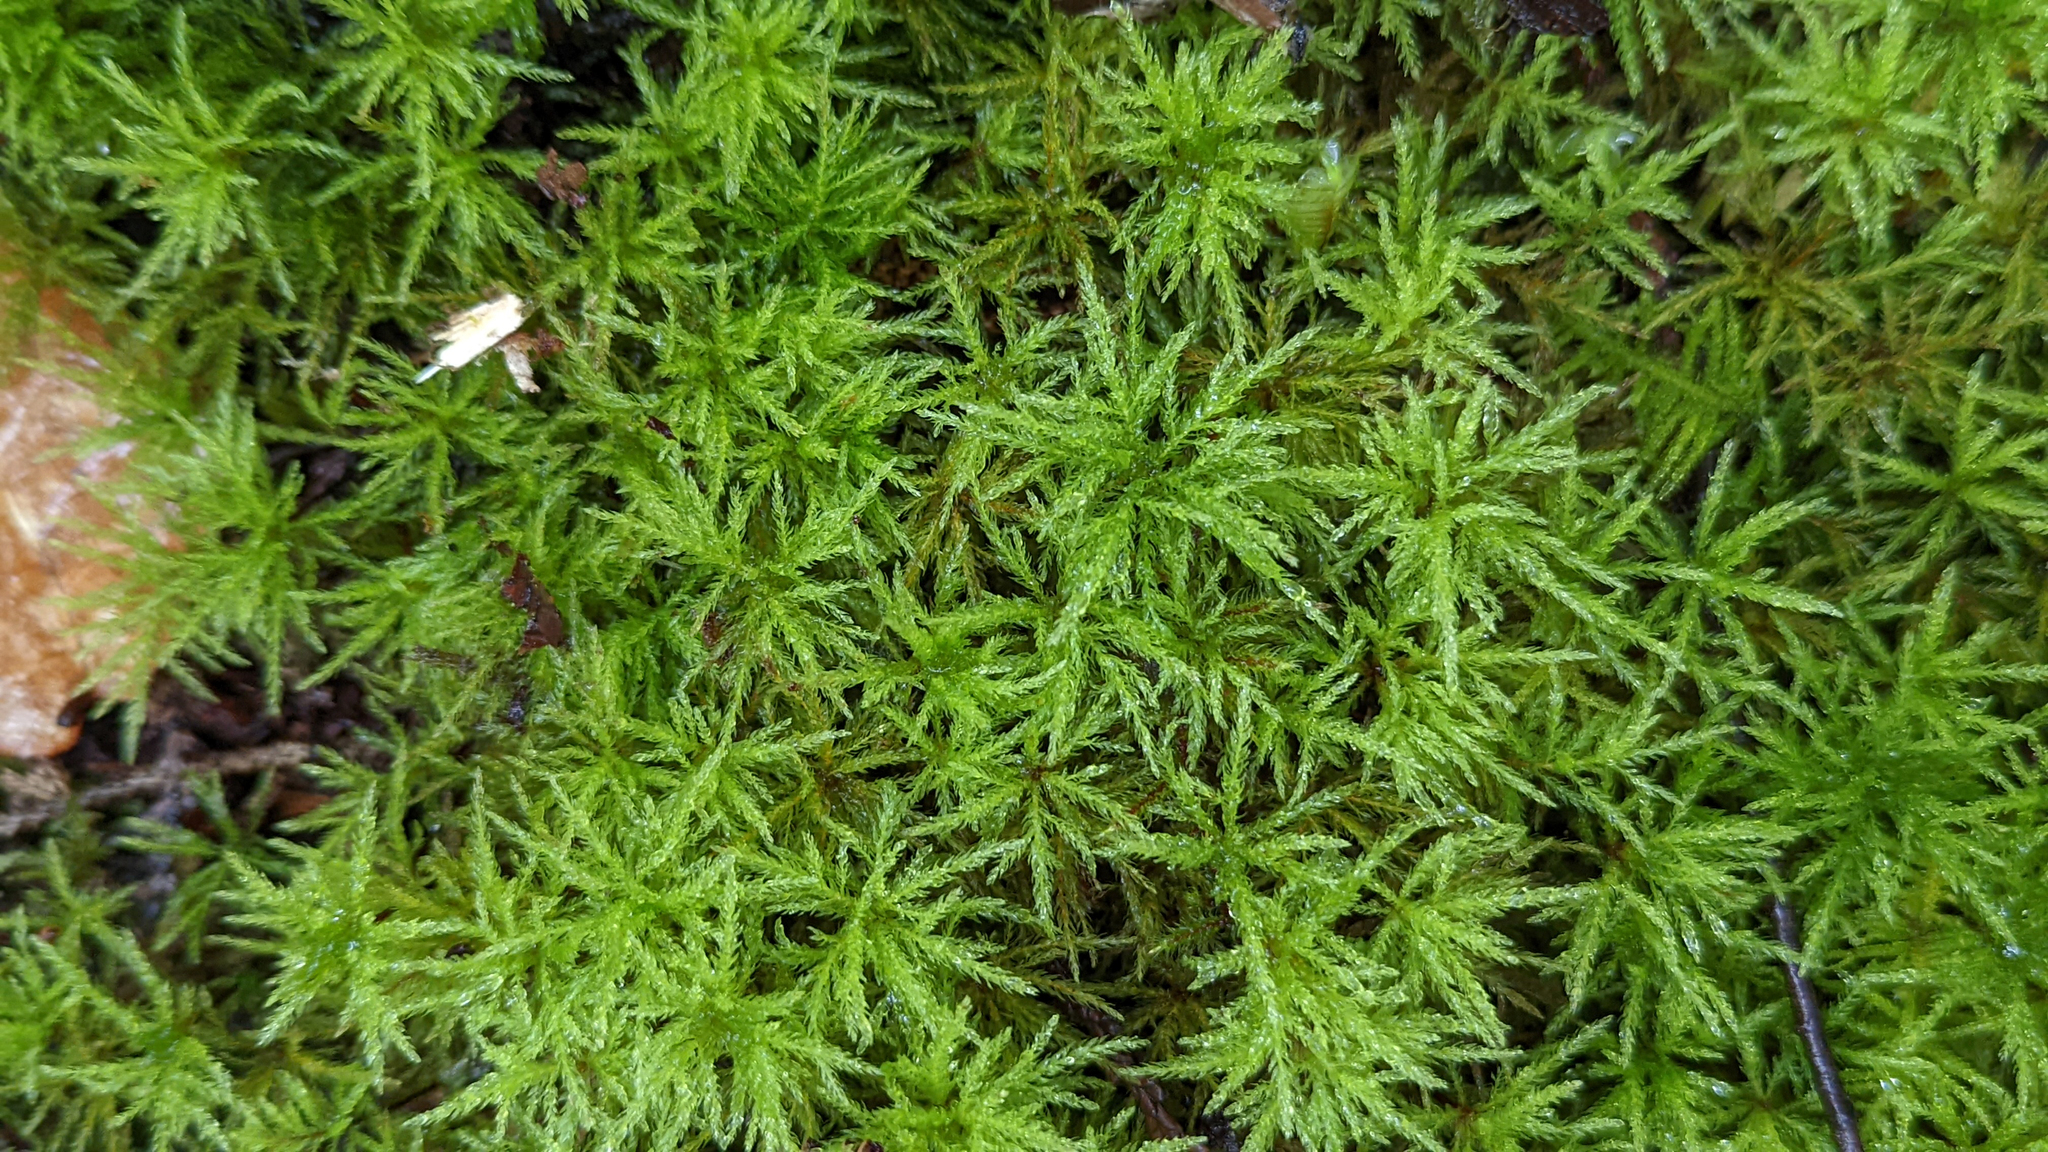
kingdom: Plantae
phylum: Bryophyta
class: Bryopsida
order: Bryales
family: Mniaceae
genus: Leucolepis
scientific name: Leucolepis acanthoneura
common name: Leucolepis umbrella moss
